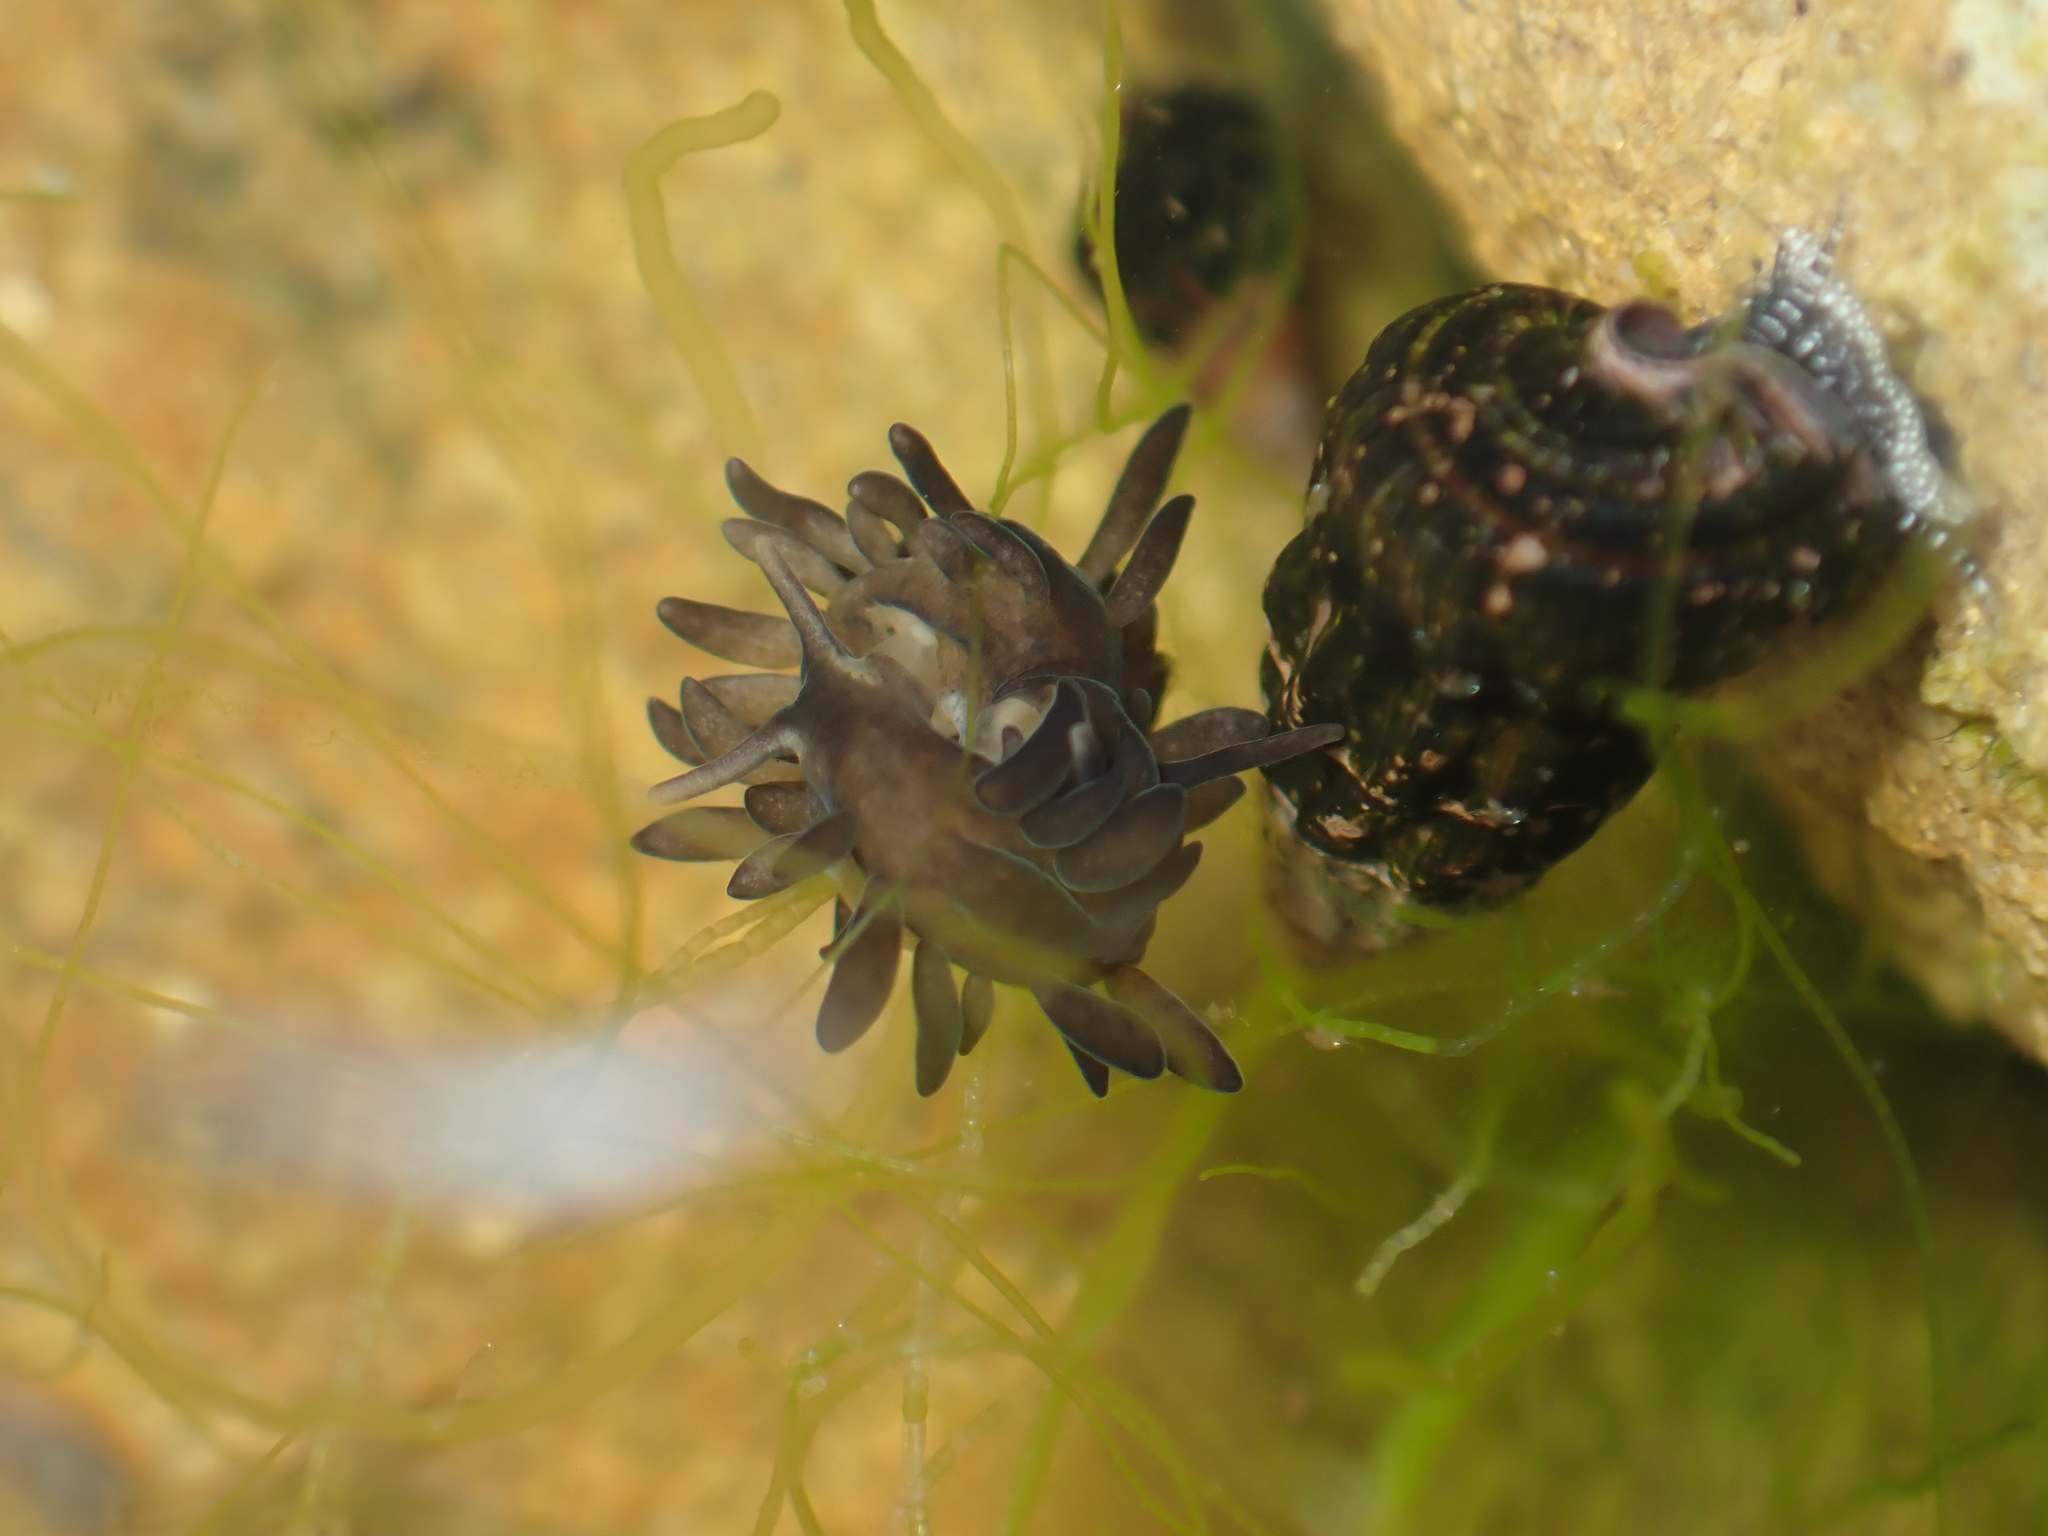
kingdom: Animalia
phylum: Mollusca
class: Gastropoda
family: Limapontiidae
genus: Ercolania
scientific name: Ercolania felina
